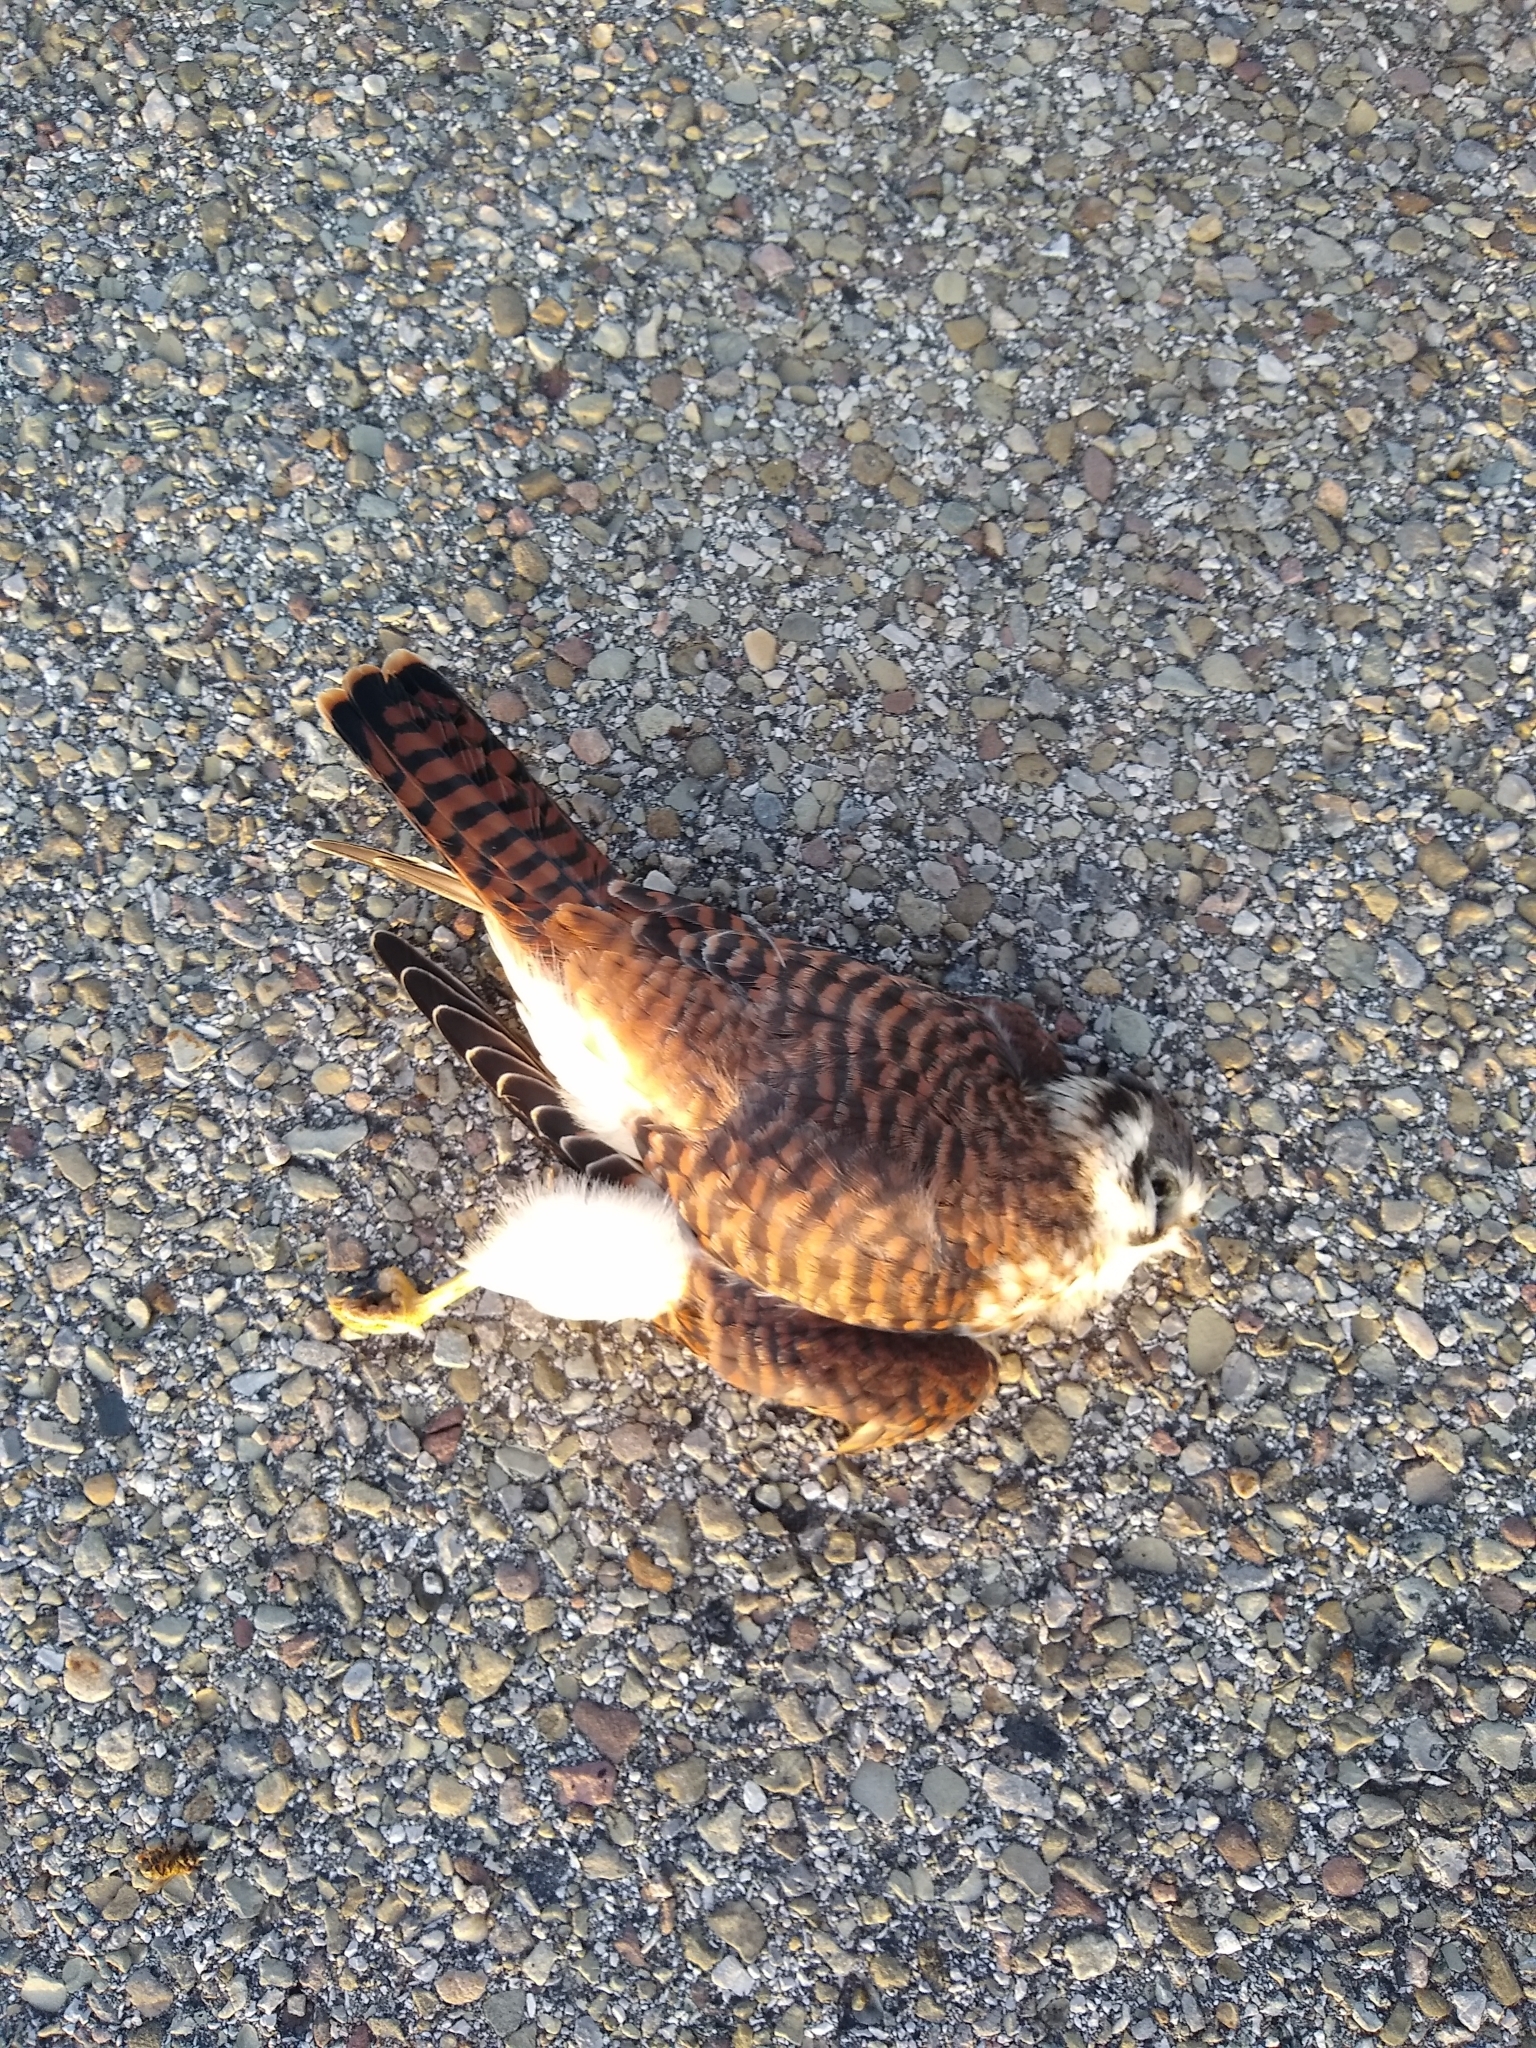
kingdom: Animalia
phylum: Chordata
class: Aves
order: Falconiformes
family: Falconidae
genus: Falco
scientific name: Falco sparverius
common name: American kestrel
